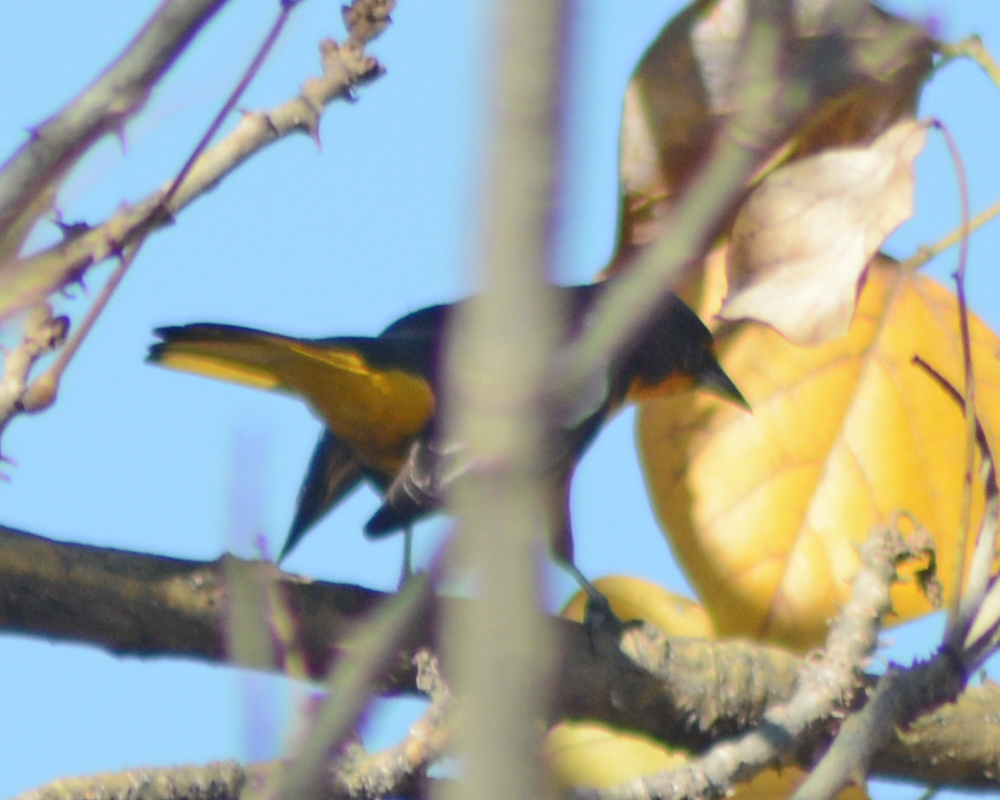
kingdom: Animalia
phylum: Chordata
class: Aves
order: Passeriformes
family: Icteridae
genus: Icterus
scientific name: Icterus abeillei
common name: Black-backed oriole
